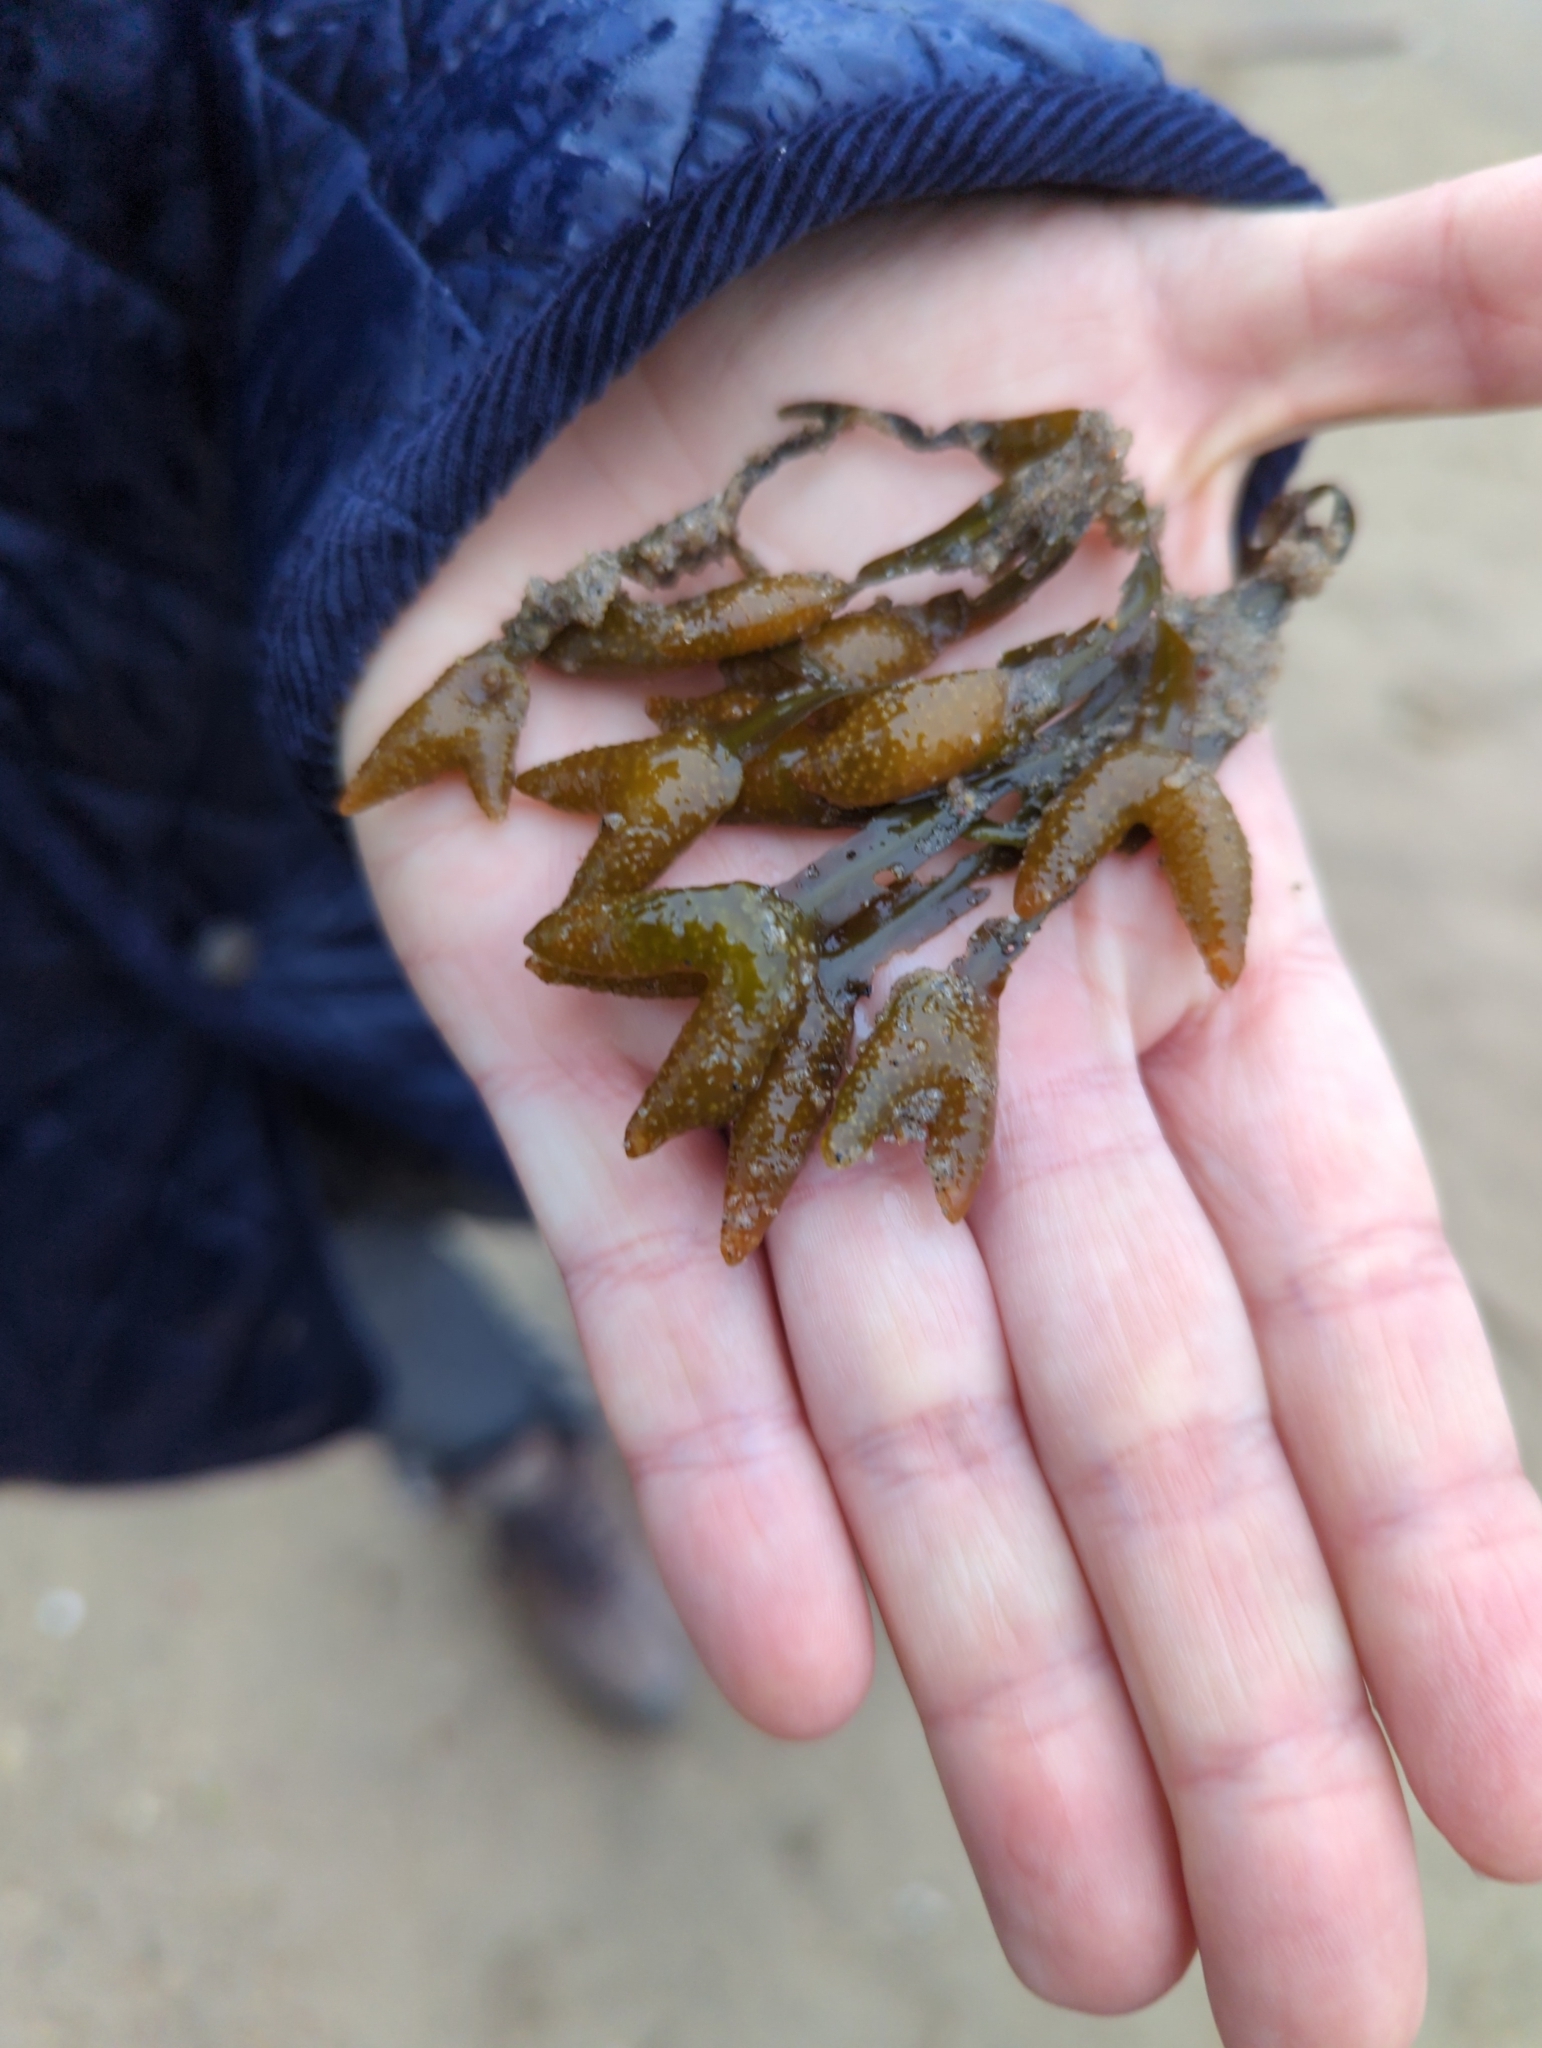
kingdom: Chromista
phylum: Ochrophyta
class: Phaeophyceae
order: Fucales
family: Fucaceae
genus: Fucus
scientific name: Fucus distichus
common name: Rockweed
